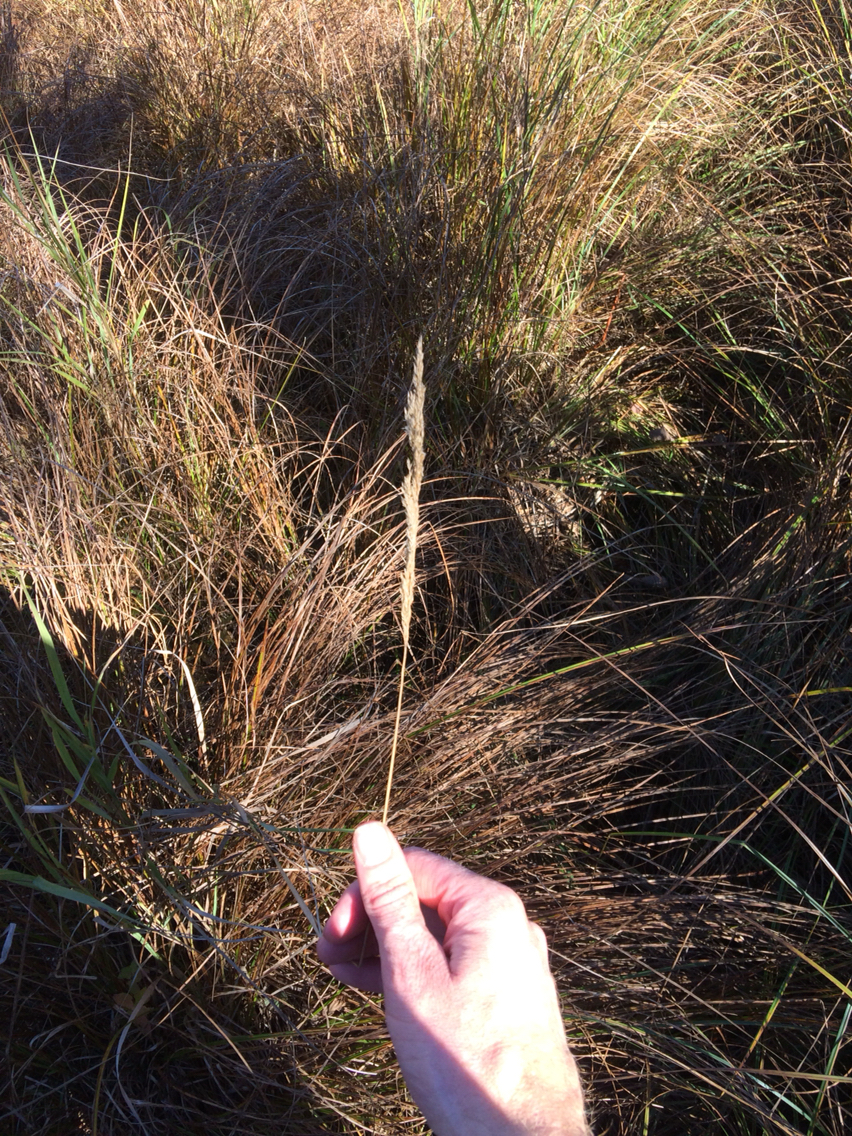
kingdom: Plantae
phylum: Tracheophyta
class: Liliopsida
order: Poales
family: Poaceae
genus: Phalaris
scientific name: Phalaris arundinacea
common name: Reed canary-grass
